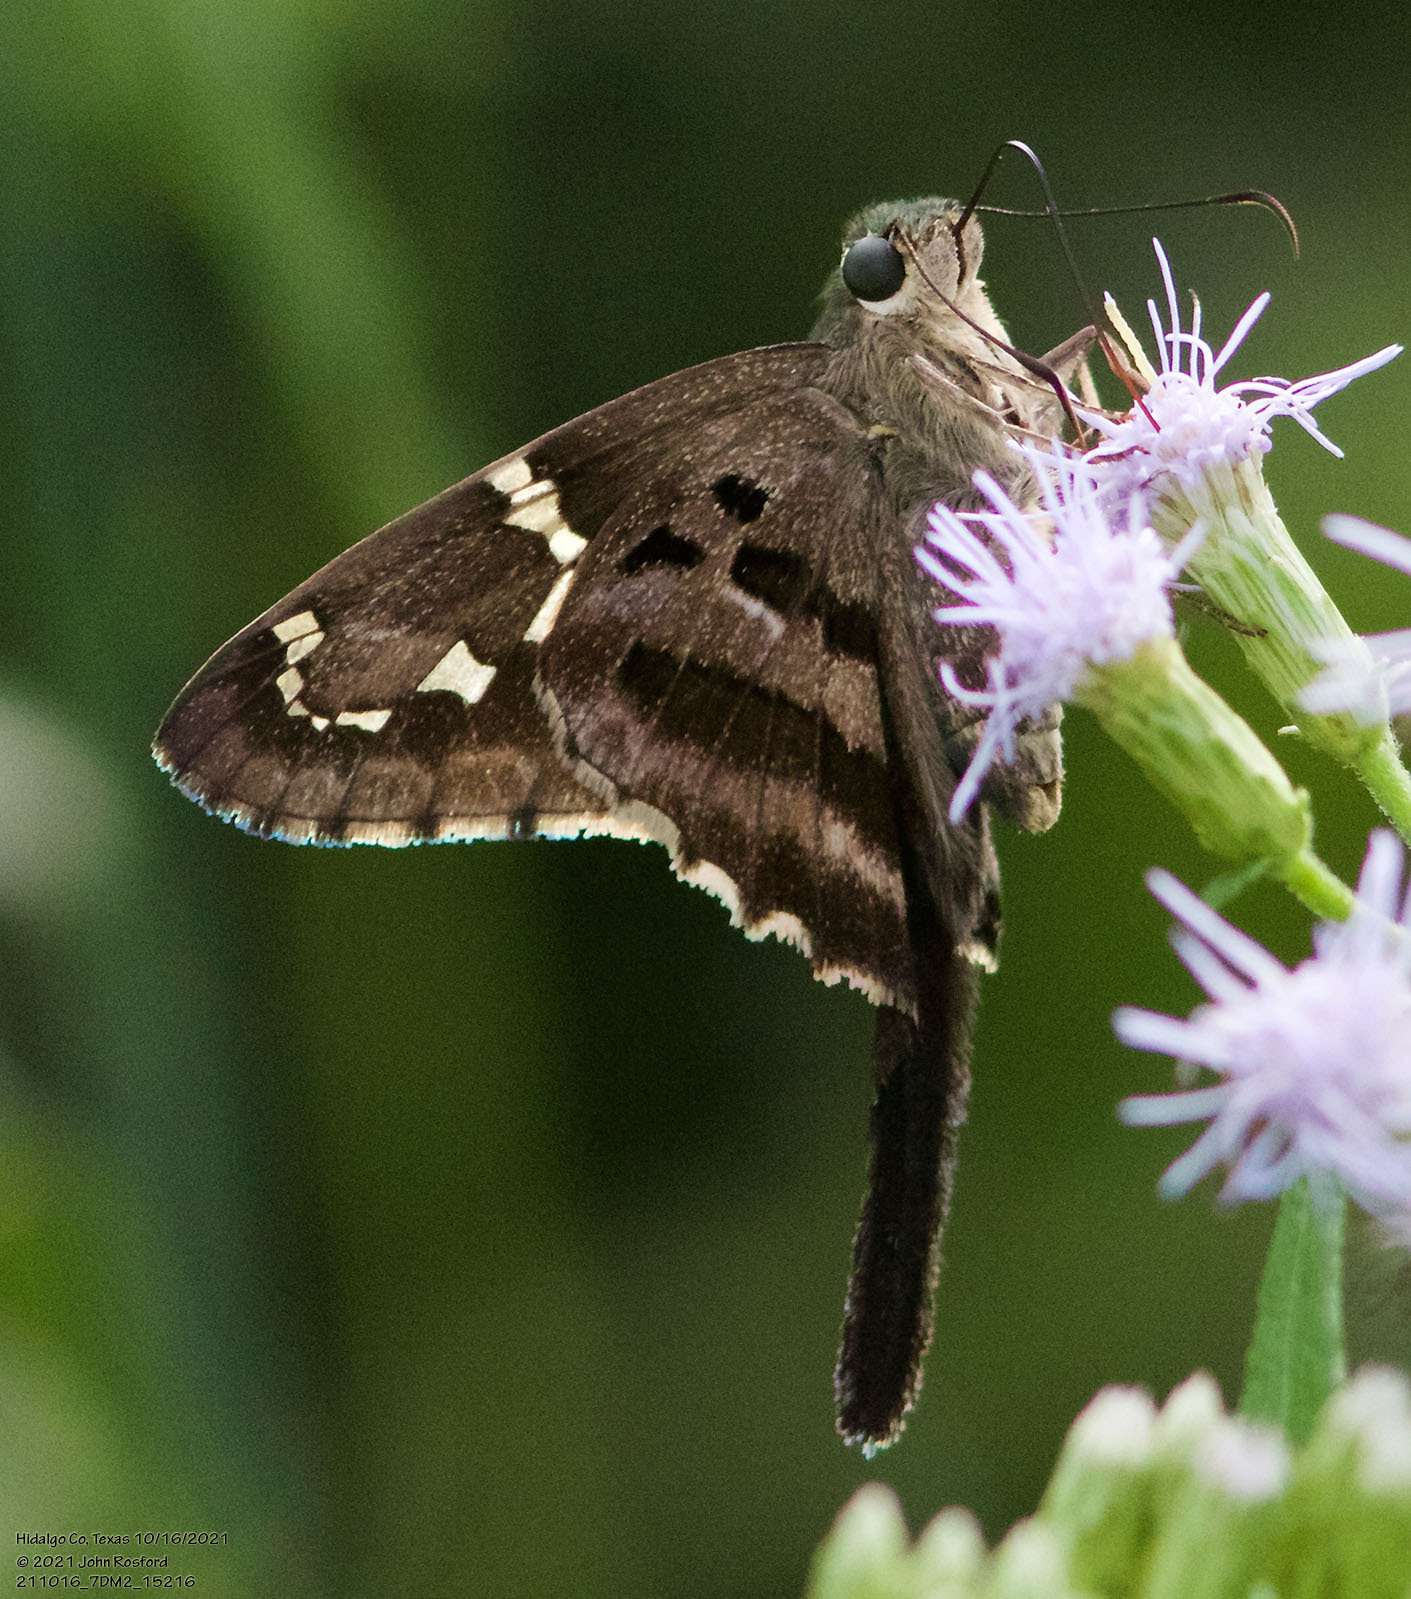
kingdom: Animalia
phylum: Arthropoda
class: Insecta
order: Lepidoptera
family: Hesperiidae
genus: Urbanus
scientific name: Urbanus proteus
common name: Long-tailed skipper
